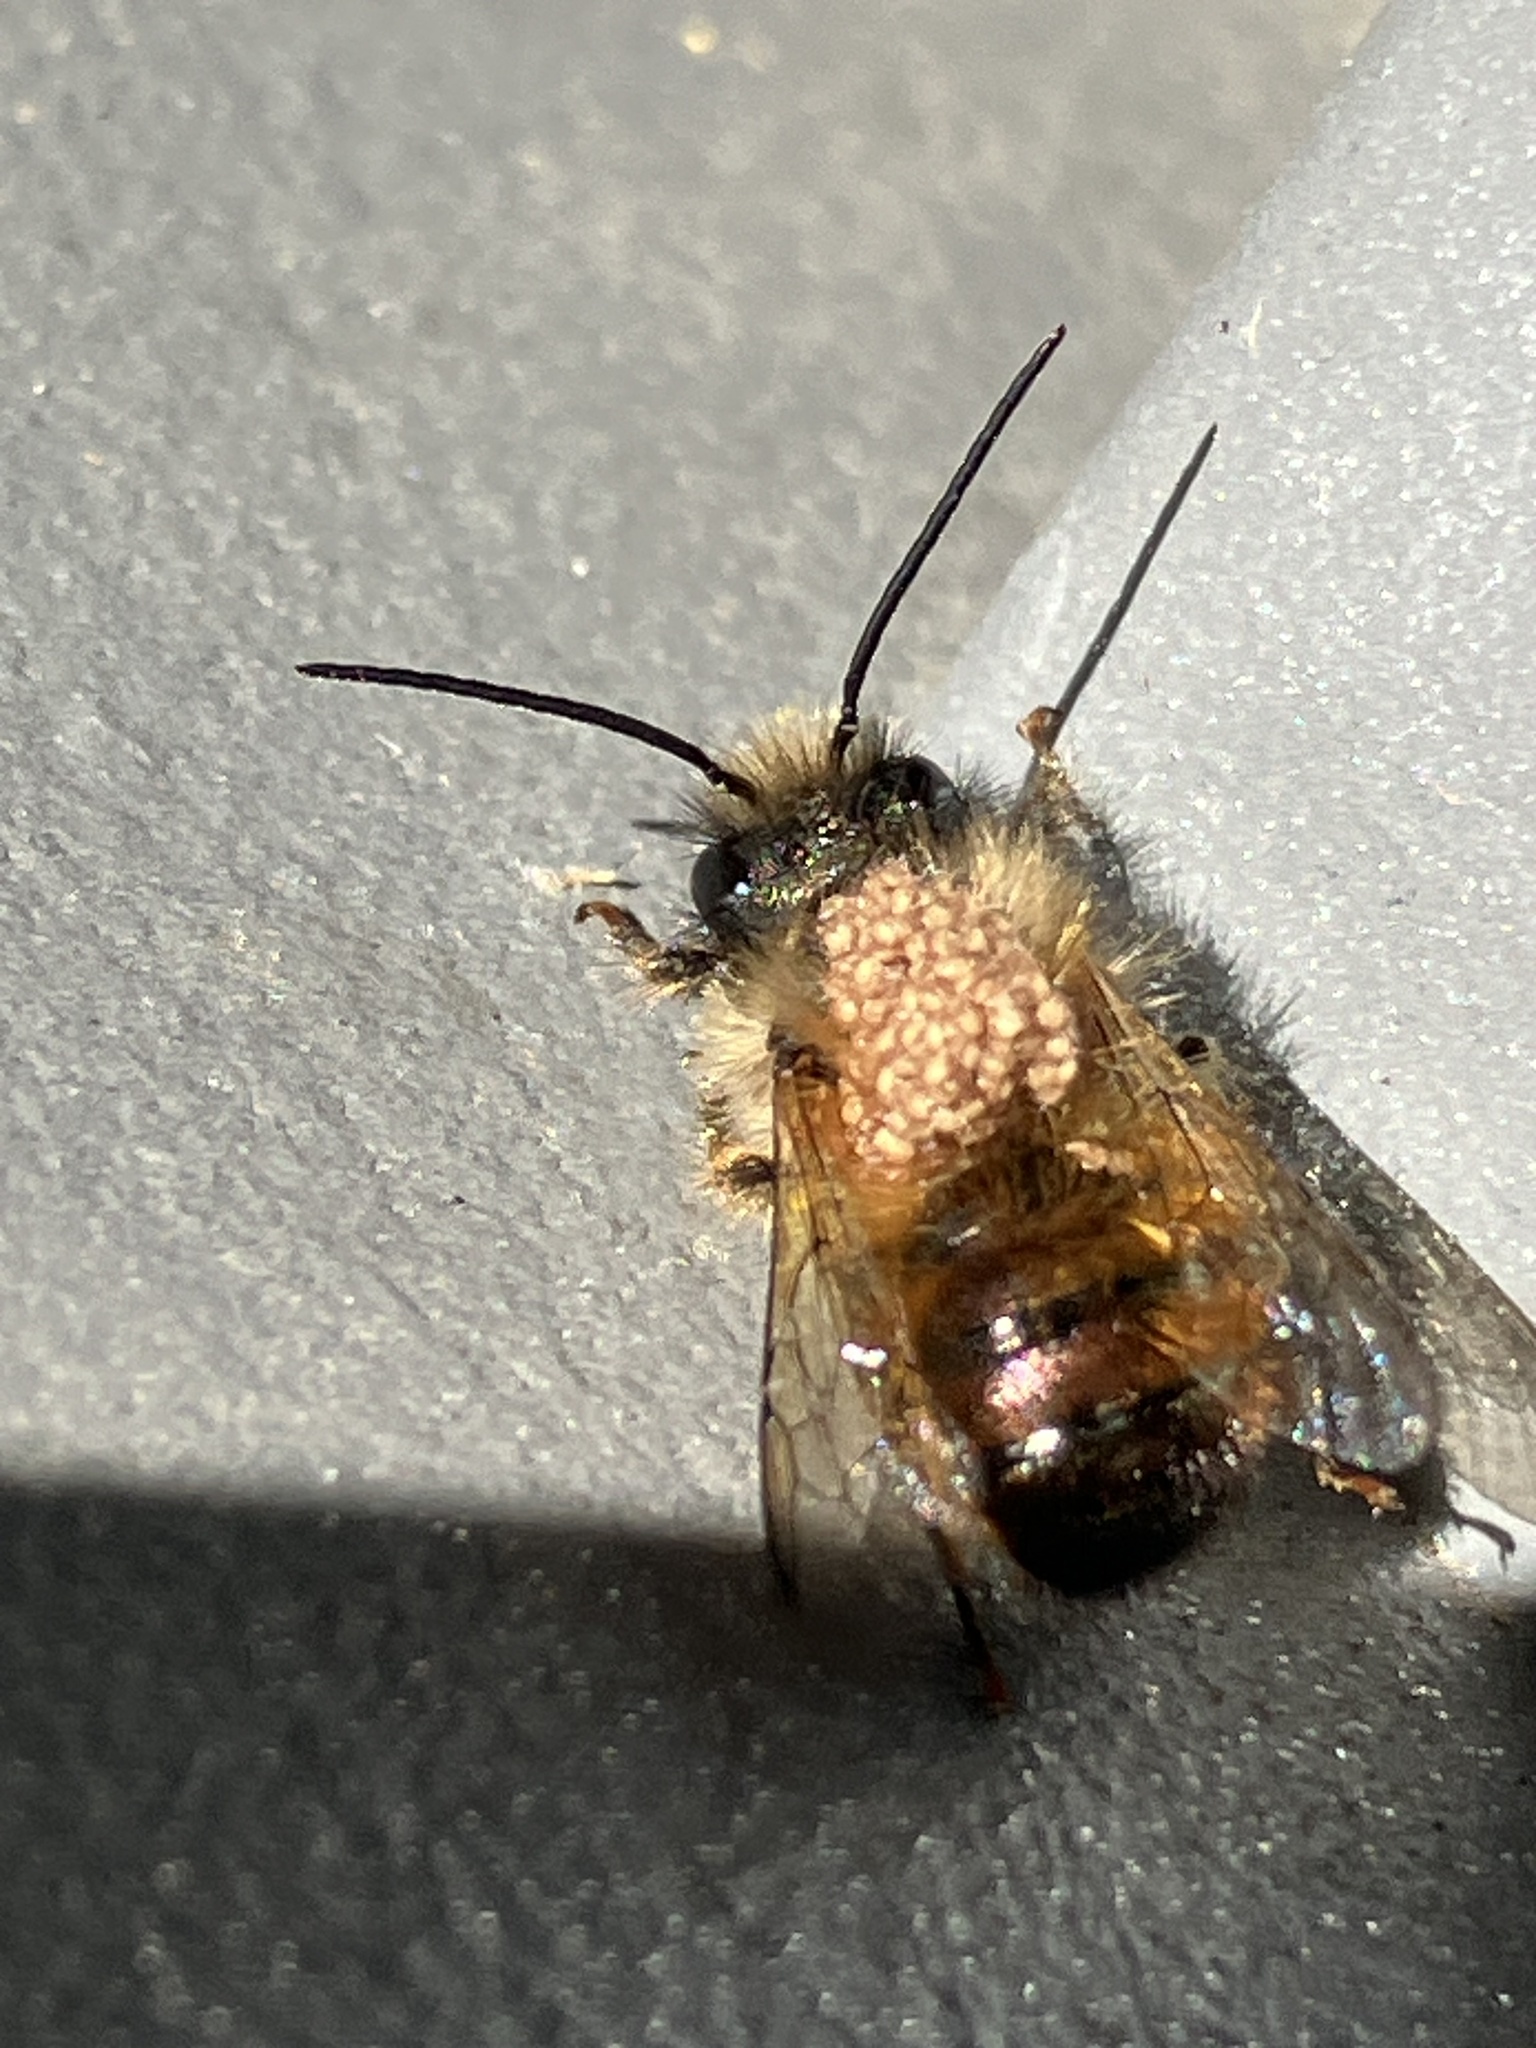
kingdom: Animalia
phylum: Arthropoda
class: Insecta
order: Hymenoptera
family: Megachilidae
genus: Osmia
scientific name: Osmia bicornis
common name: Red mason bee
